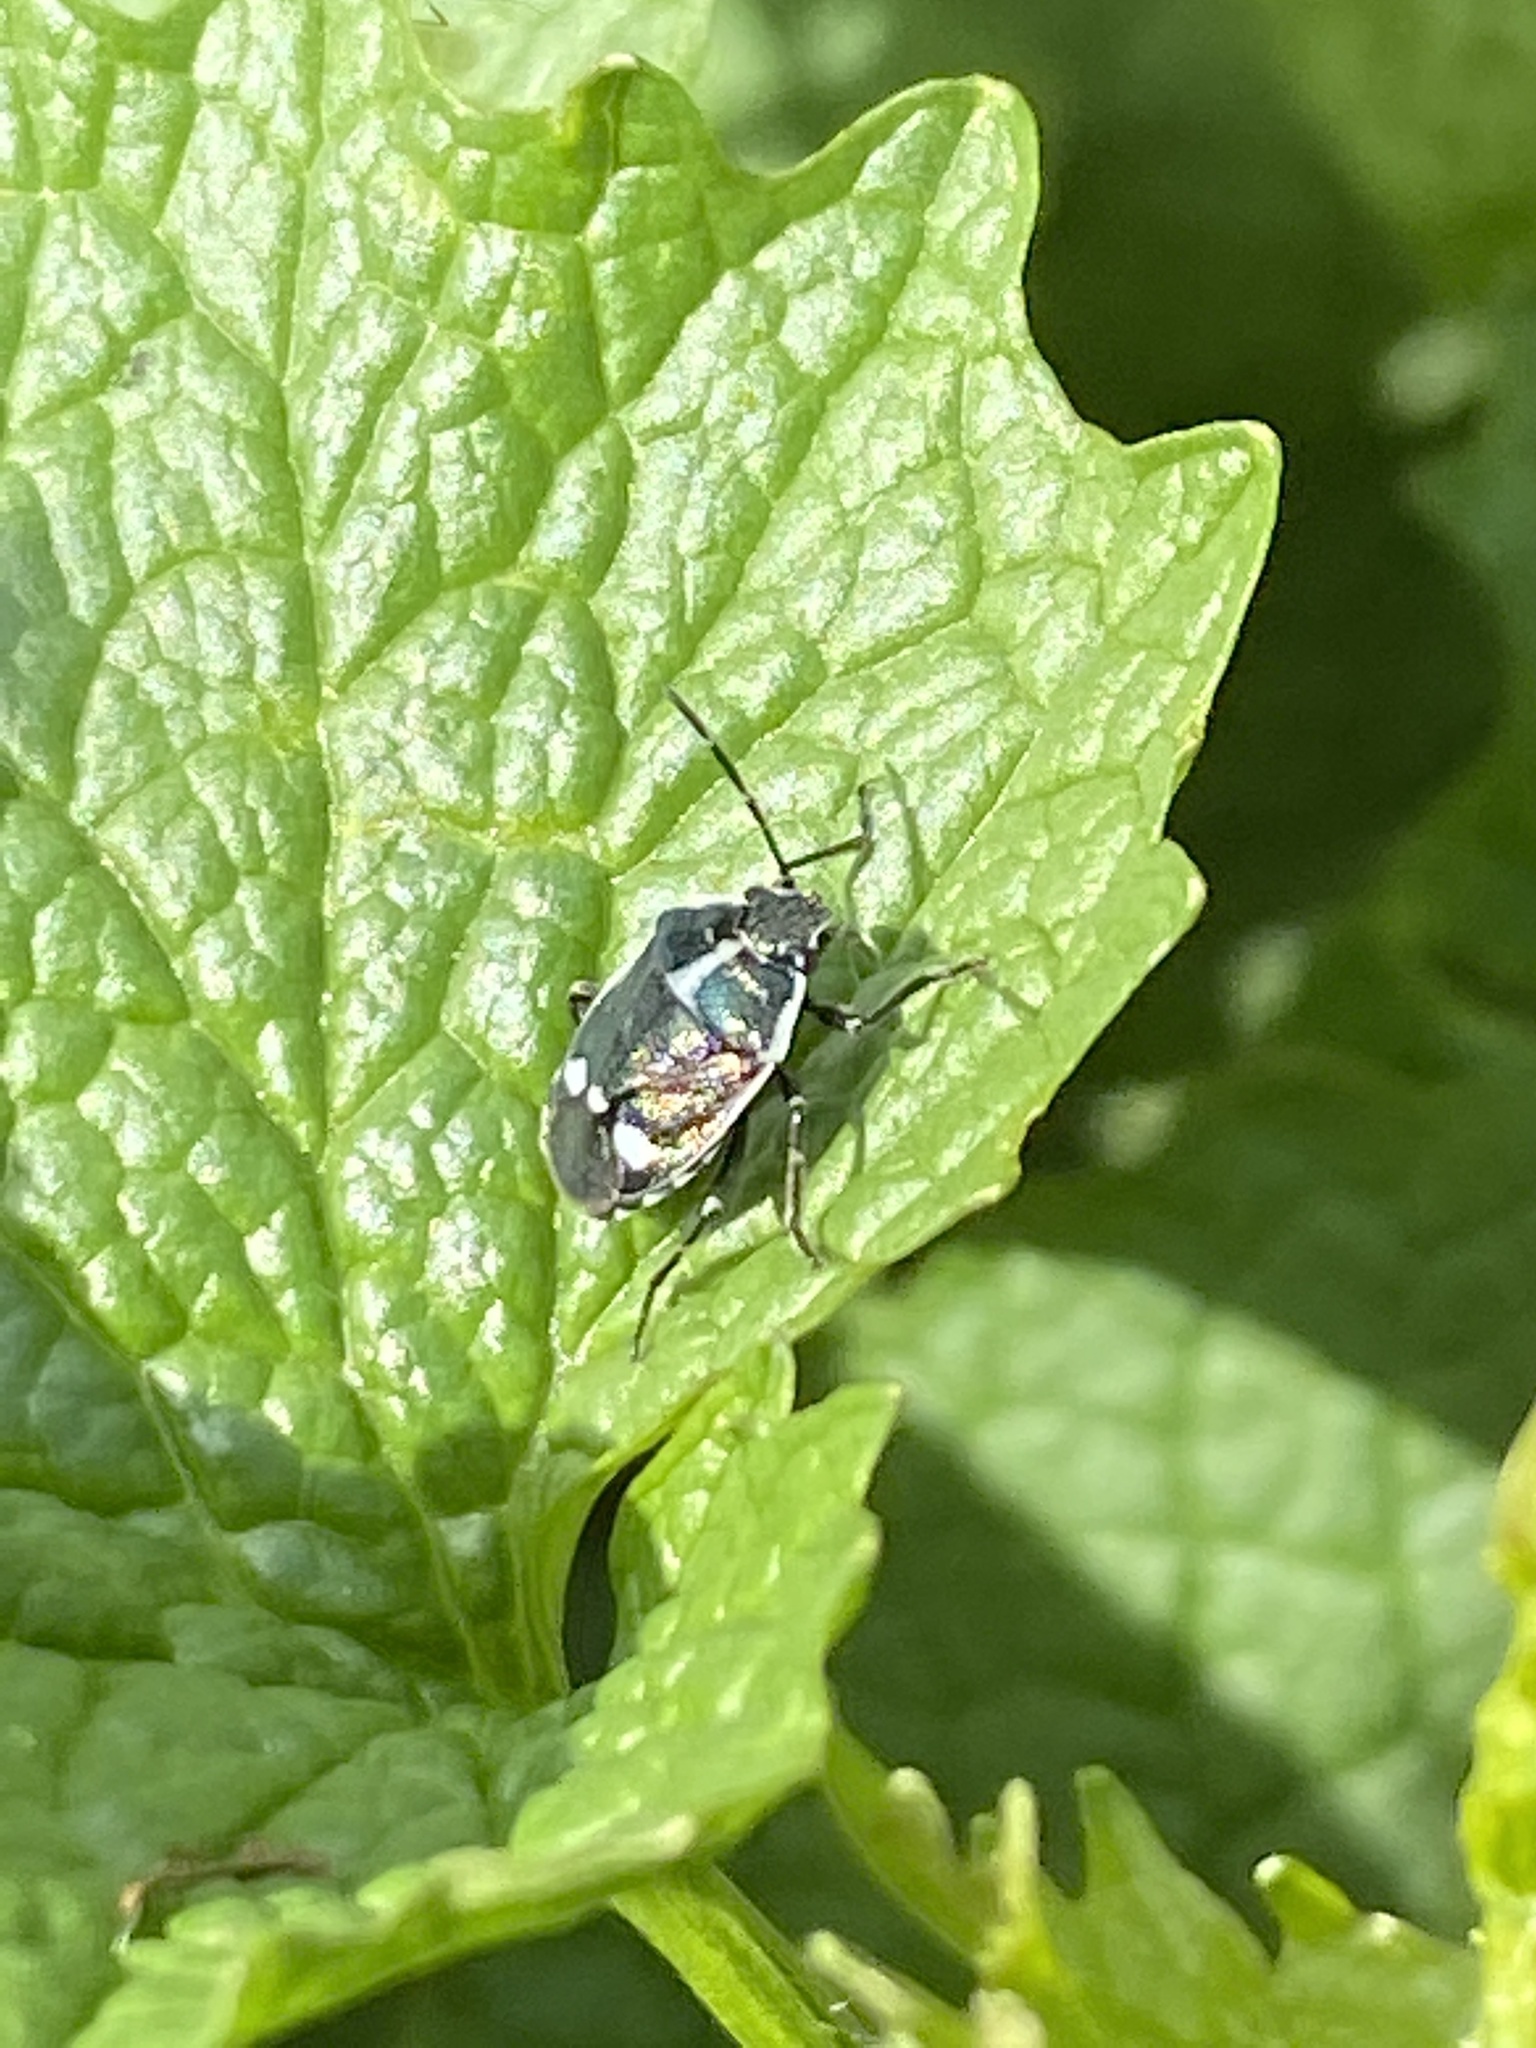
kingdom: Animalia
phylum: Arthropoda
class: Insecta
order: Hemiptera
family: Pentatomidae
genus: Eurydema
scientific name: Eurydema oleracea
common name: Cabbage bug
